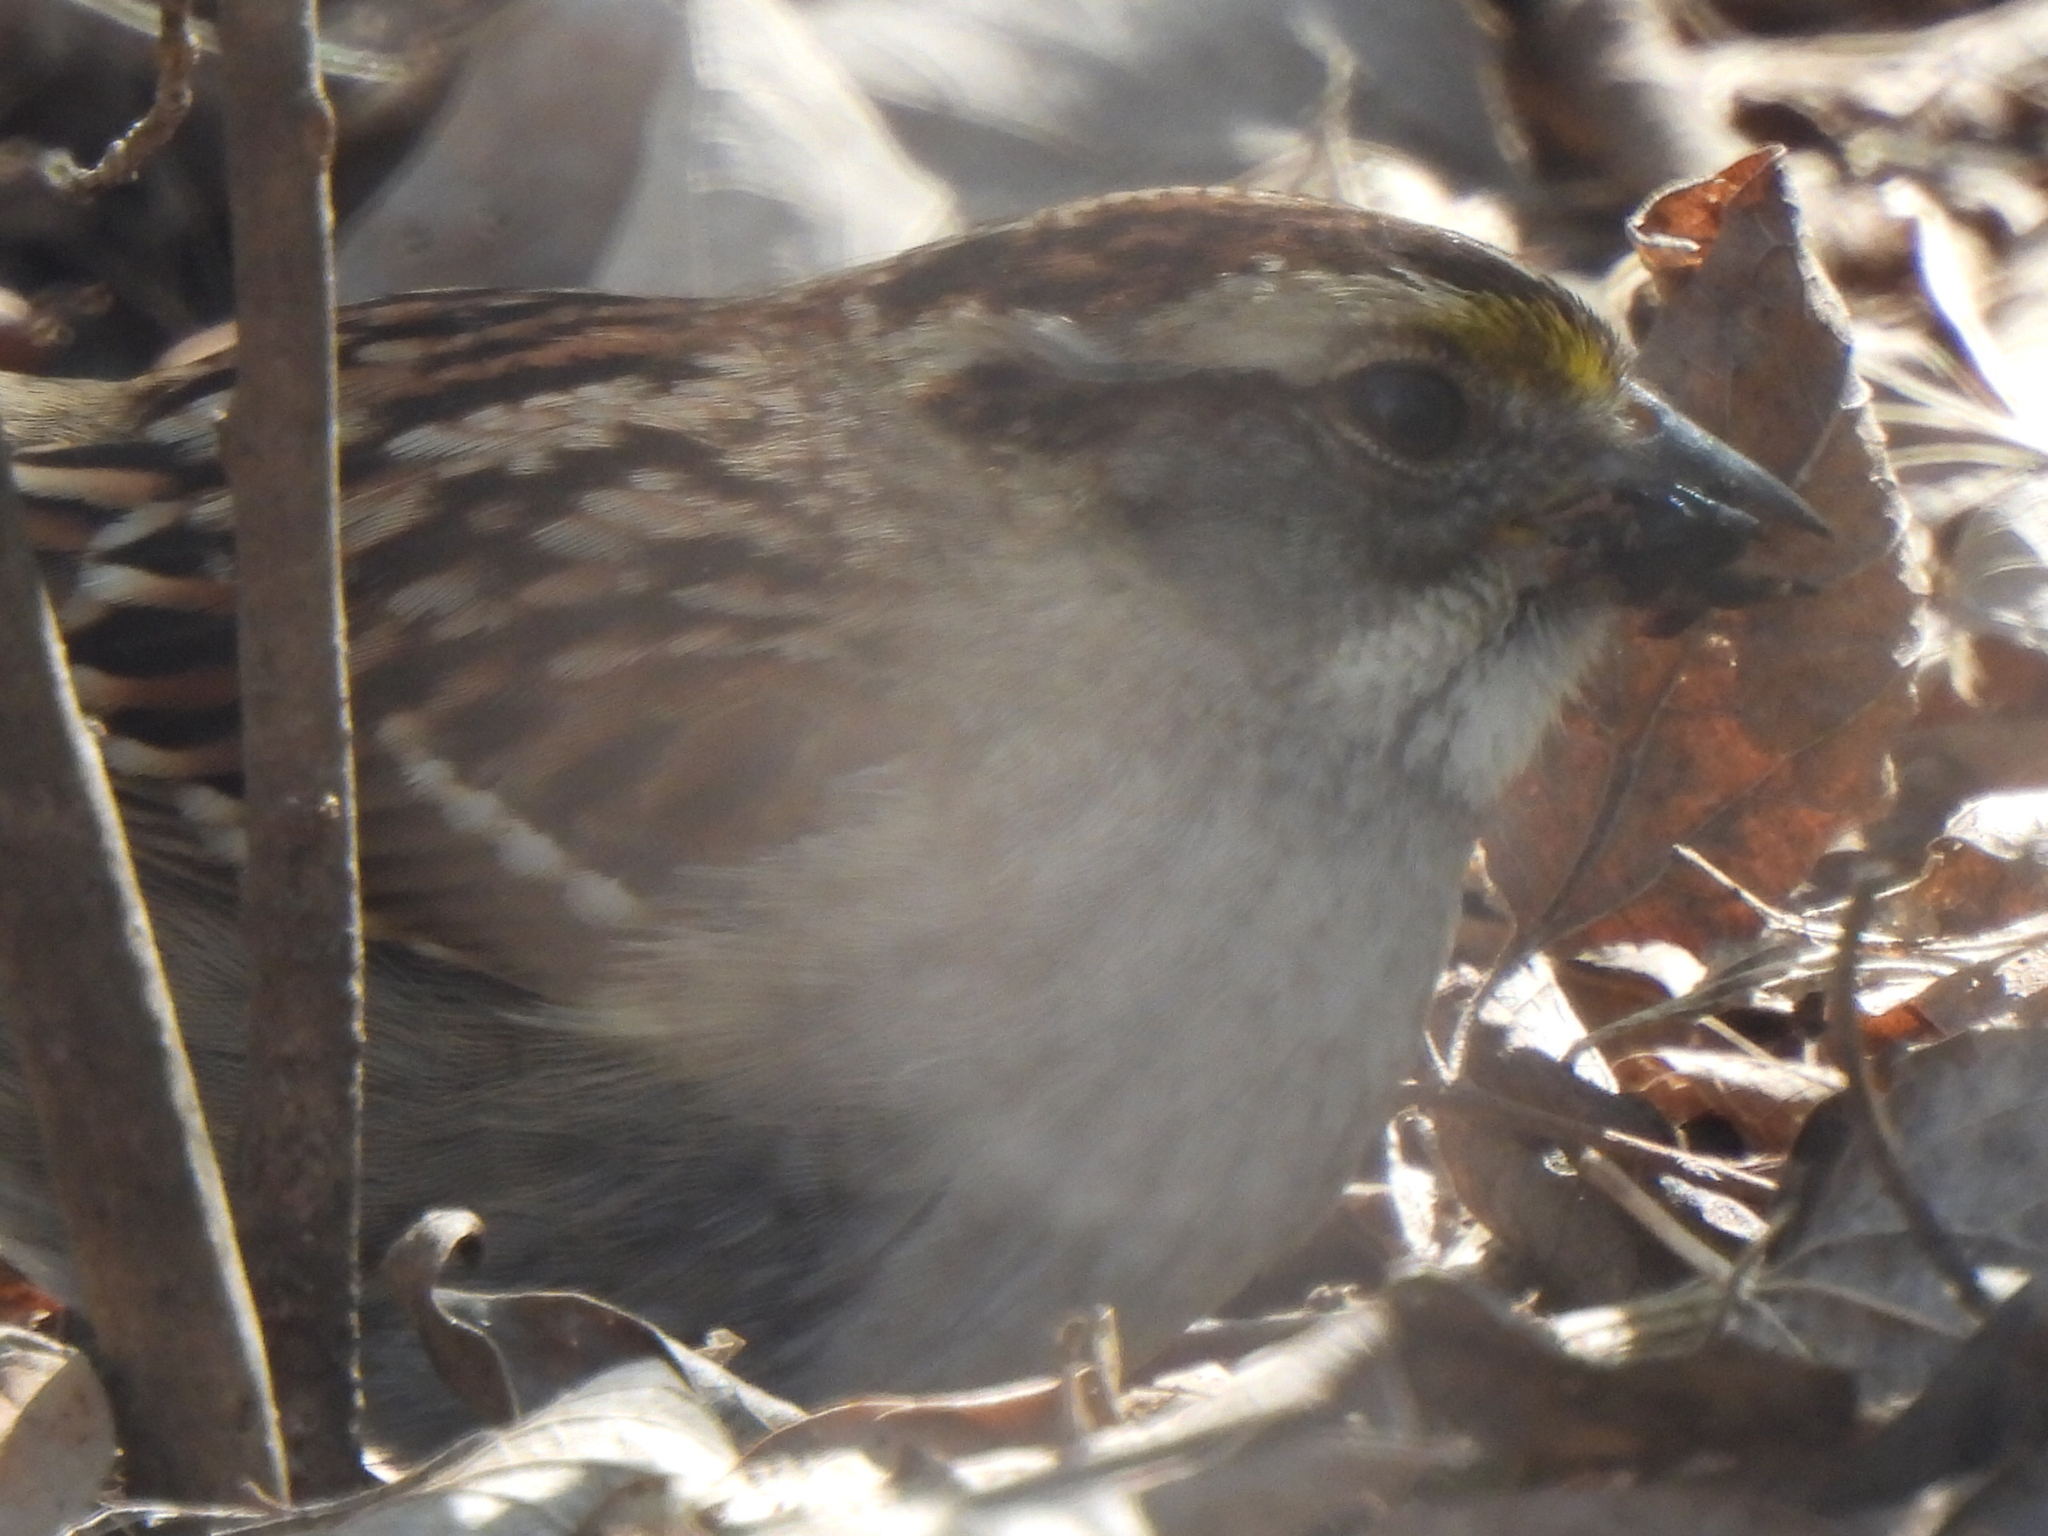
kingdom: Animalia
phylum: Chordata
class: Aves
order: Passeriformes
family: Passerellidae
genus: Zonotrichia
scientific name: Zonotrichia albicollis
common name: White-throated sparrow
